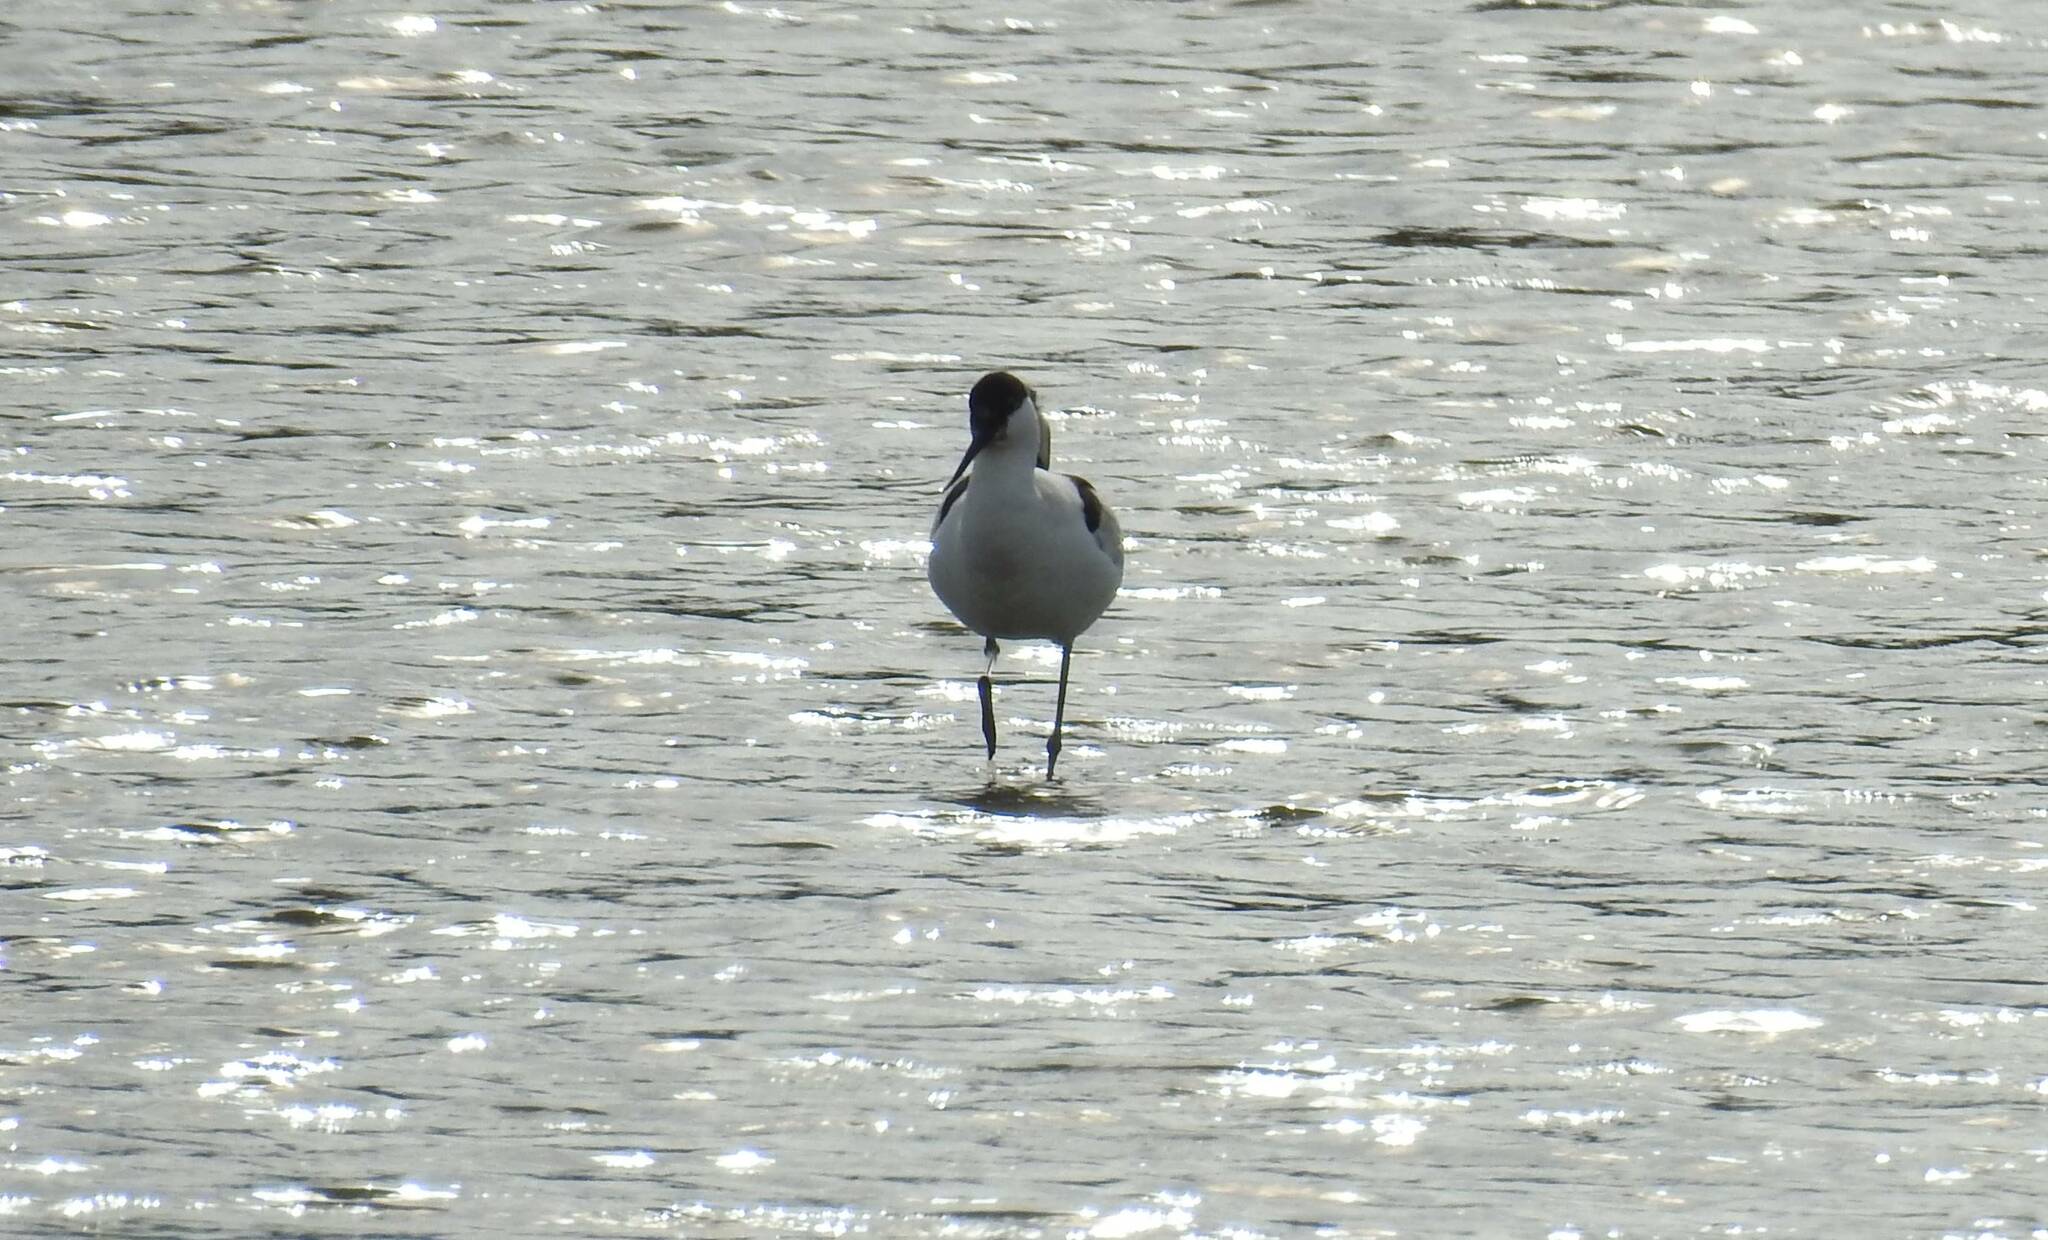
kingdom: Animalia
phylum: Chordata
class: Aves
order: Charadriiformes
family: Recurvirostridae
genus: Recurvirostra
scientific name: Recurvirostra avosetta
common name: Pied avocet
